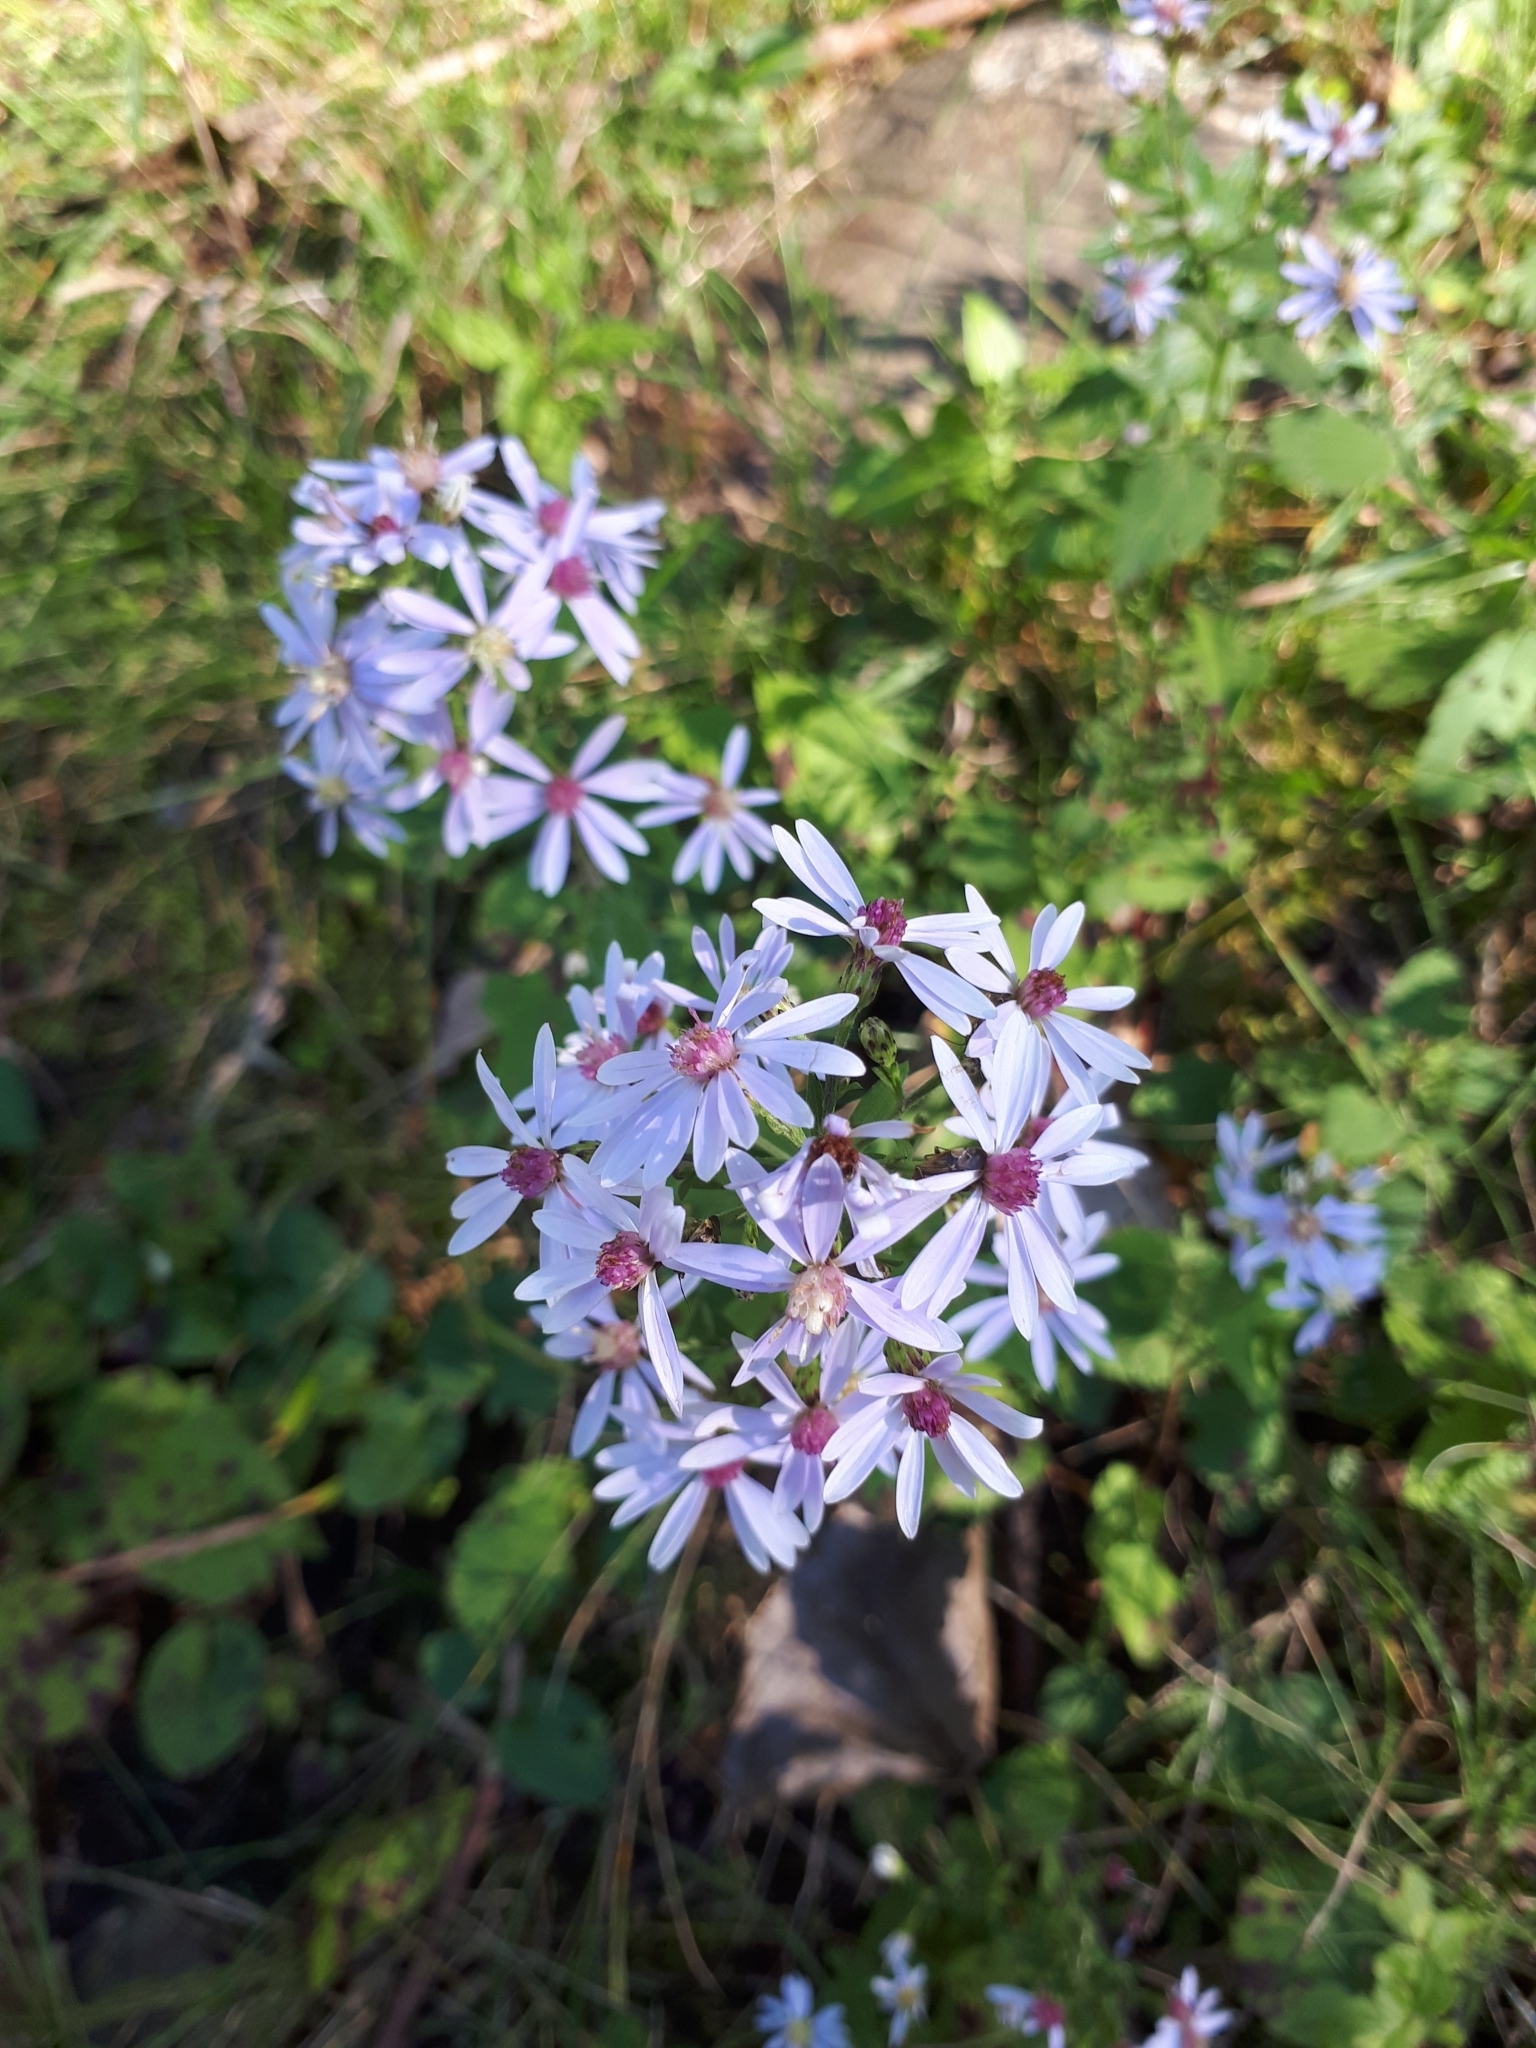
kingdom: Plantae
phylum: Tracheophyta
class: Magnoliopsida
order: Asterales
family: Asteraceae
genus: Symphyotrichum
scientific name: Symphyotrichum cordifolium
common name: Beeweed
